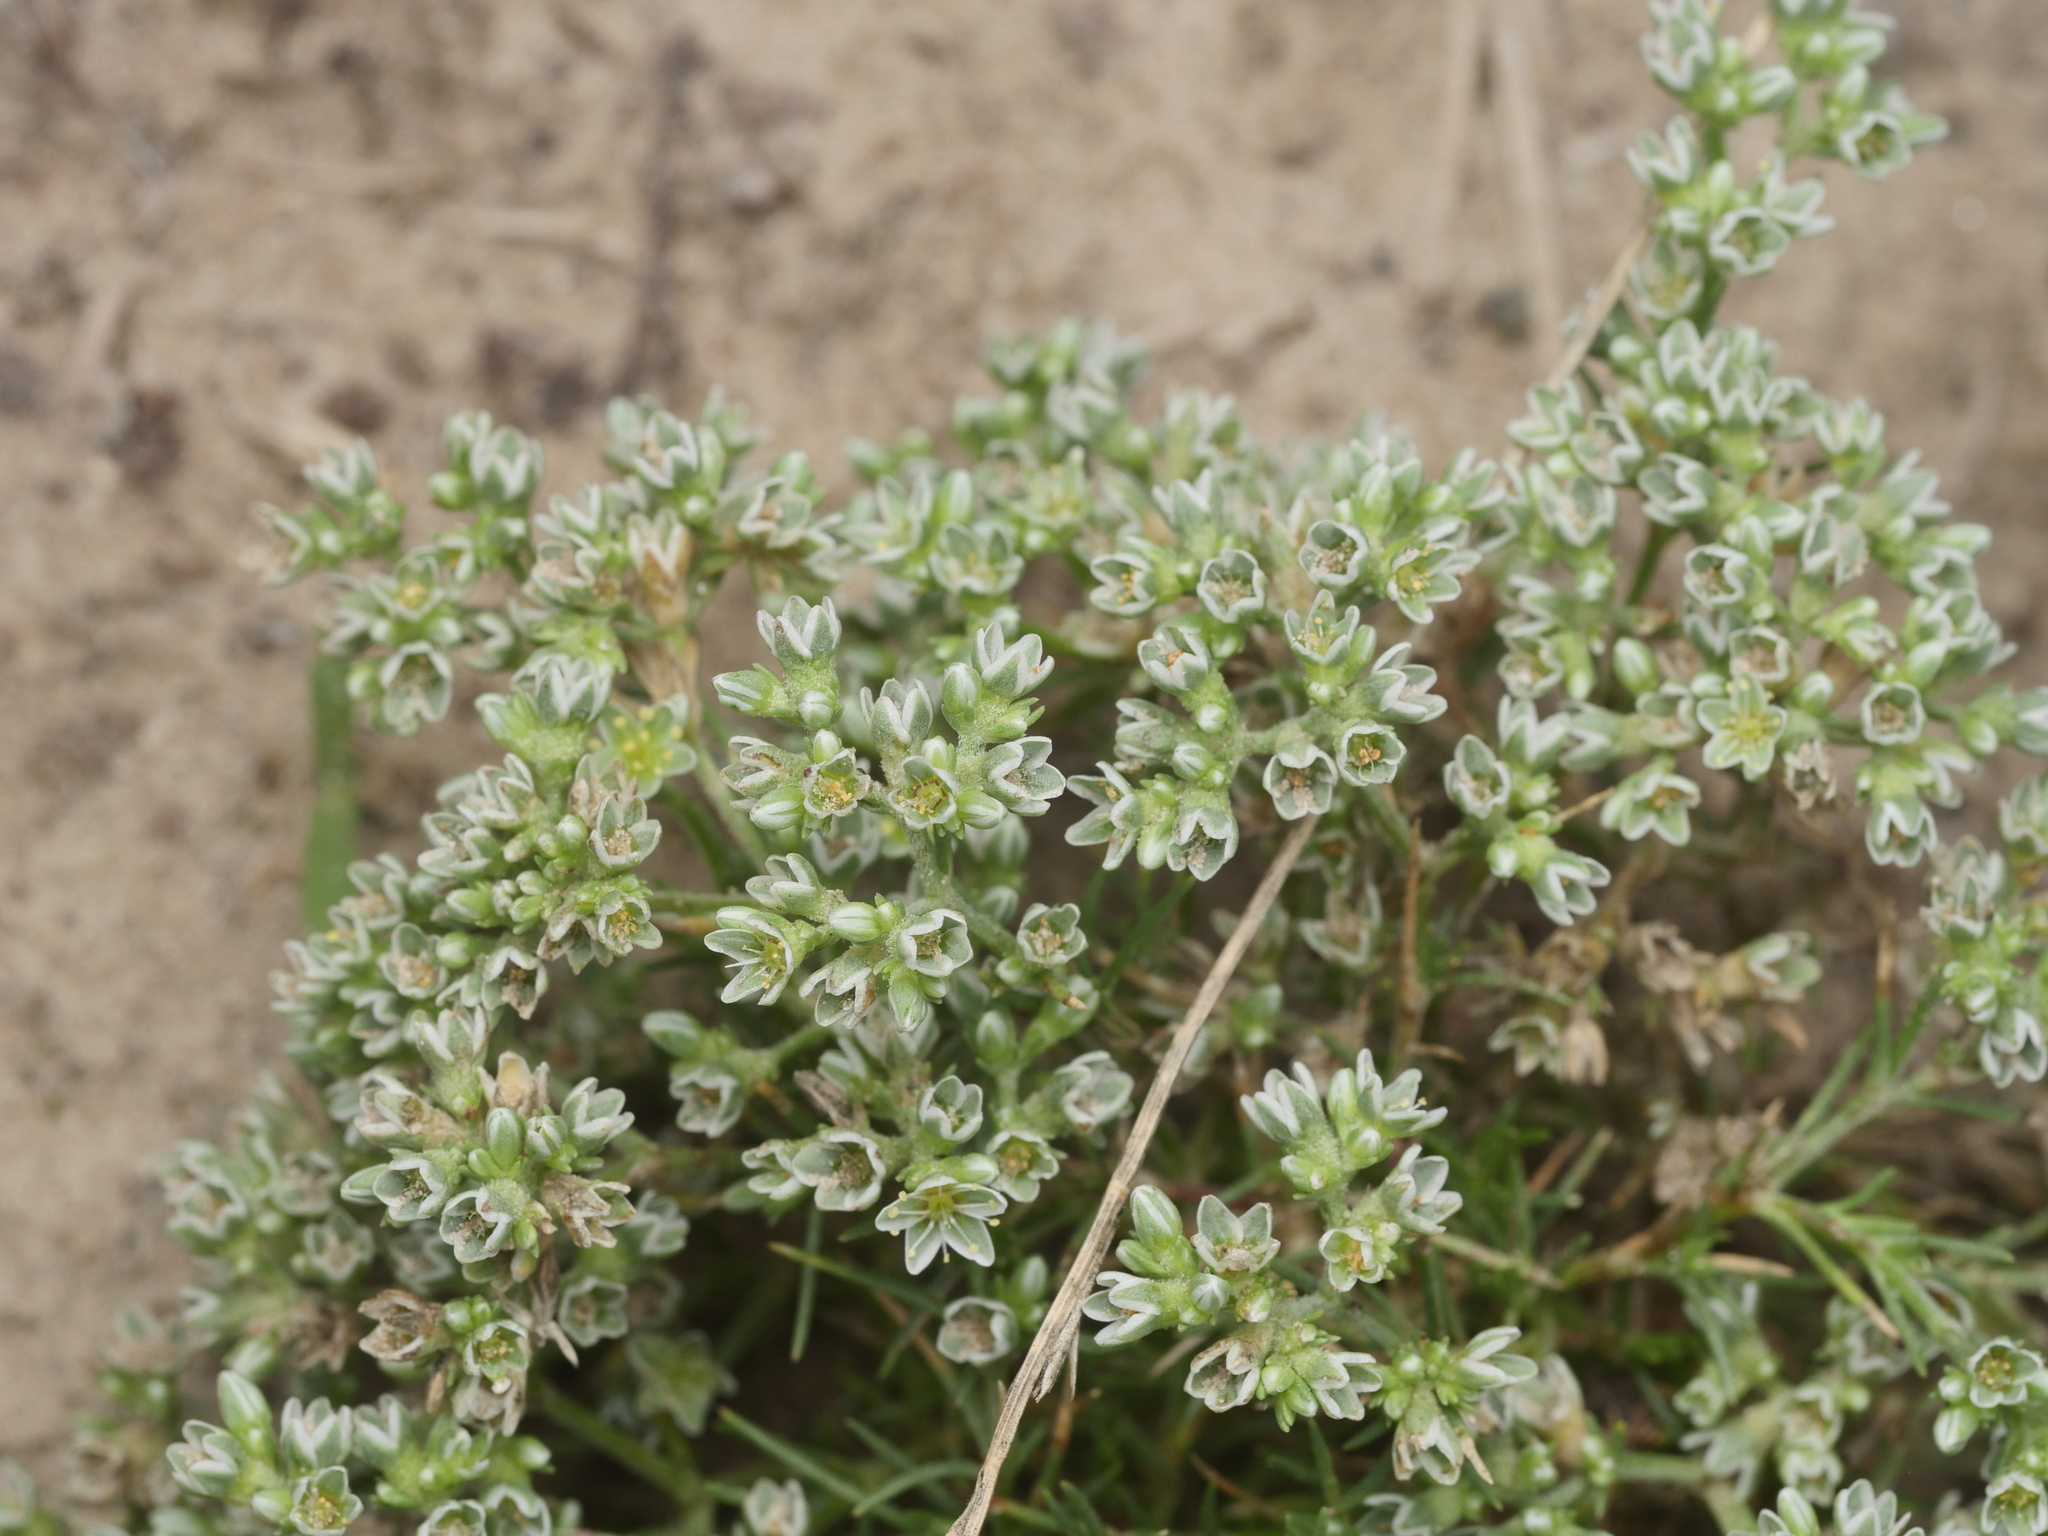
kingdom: Plantae
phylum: Tracheophyta
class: Magnoliopsida
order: Caryophyllales
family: Caryophyllaceae
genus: Scleranthus
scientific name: Scleranthus perennis
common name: Perennial knawel
